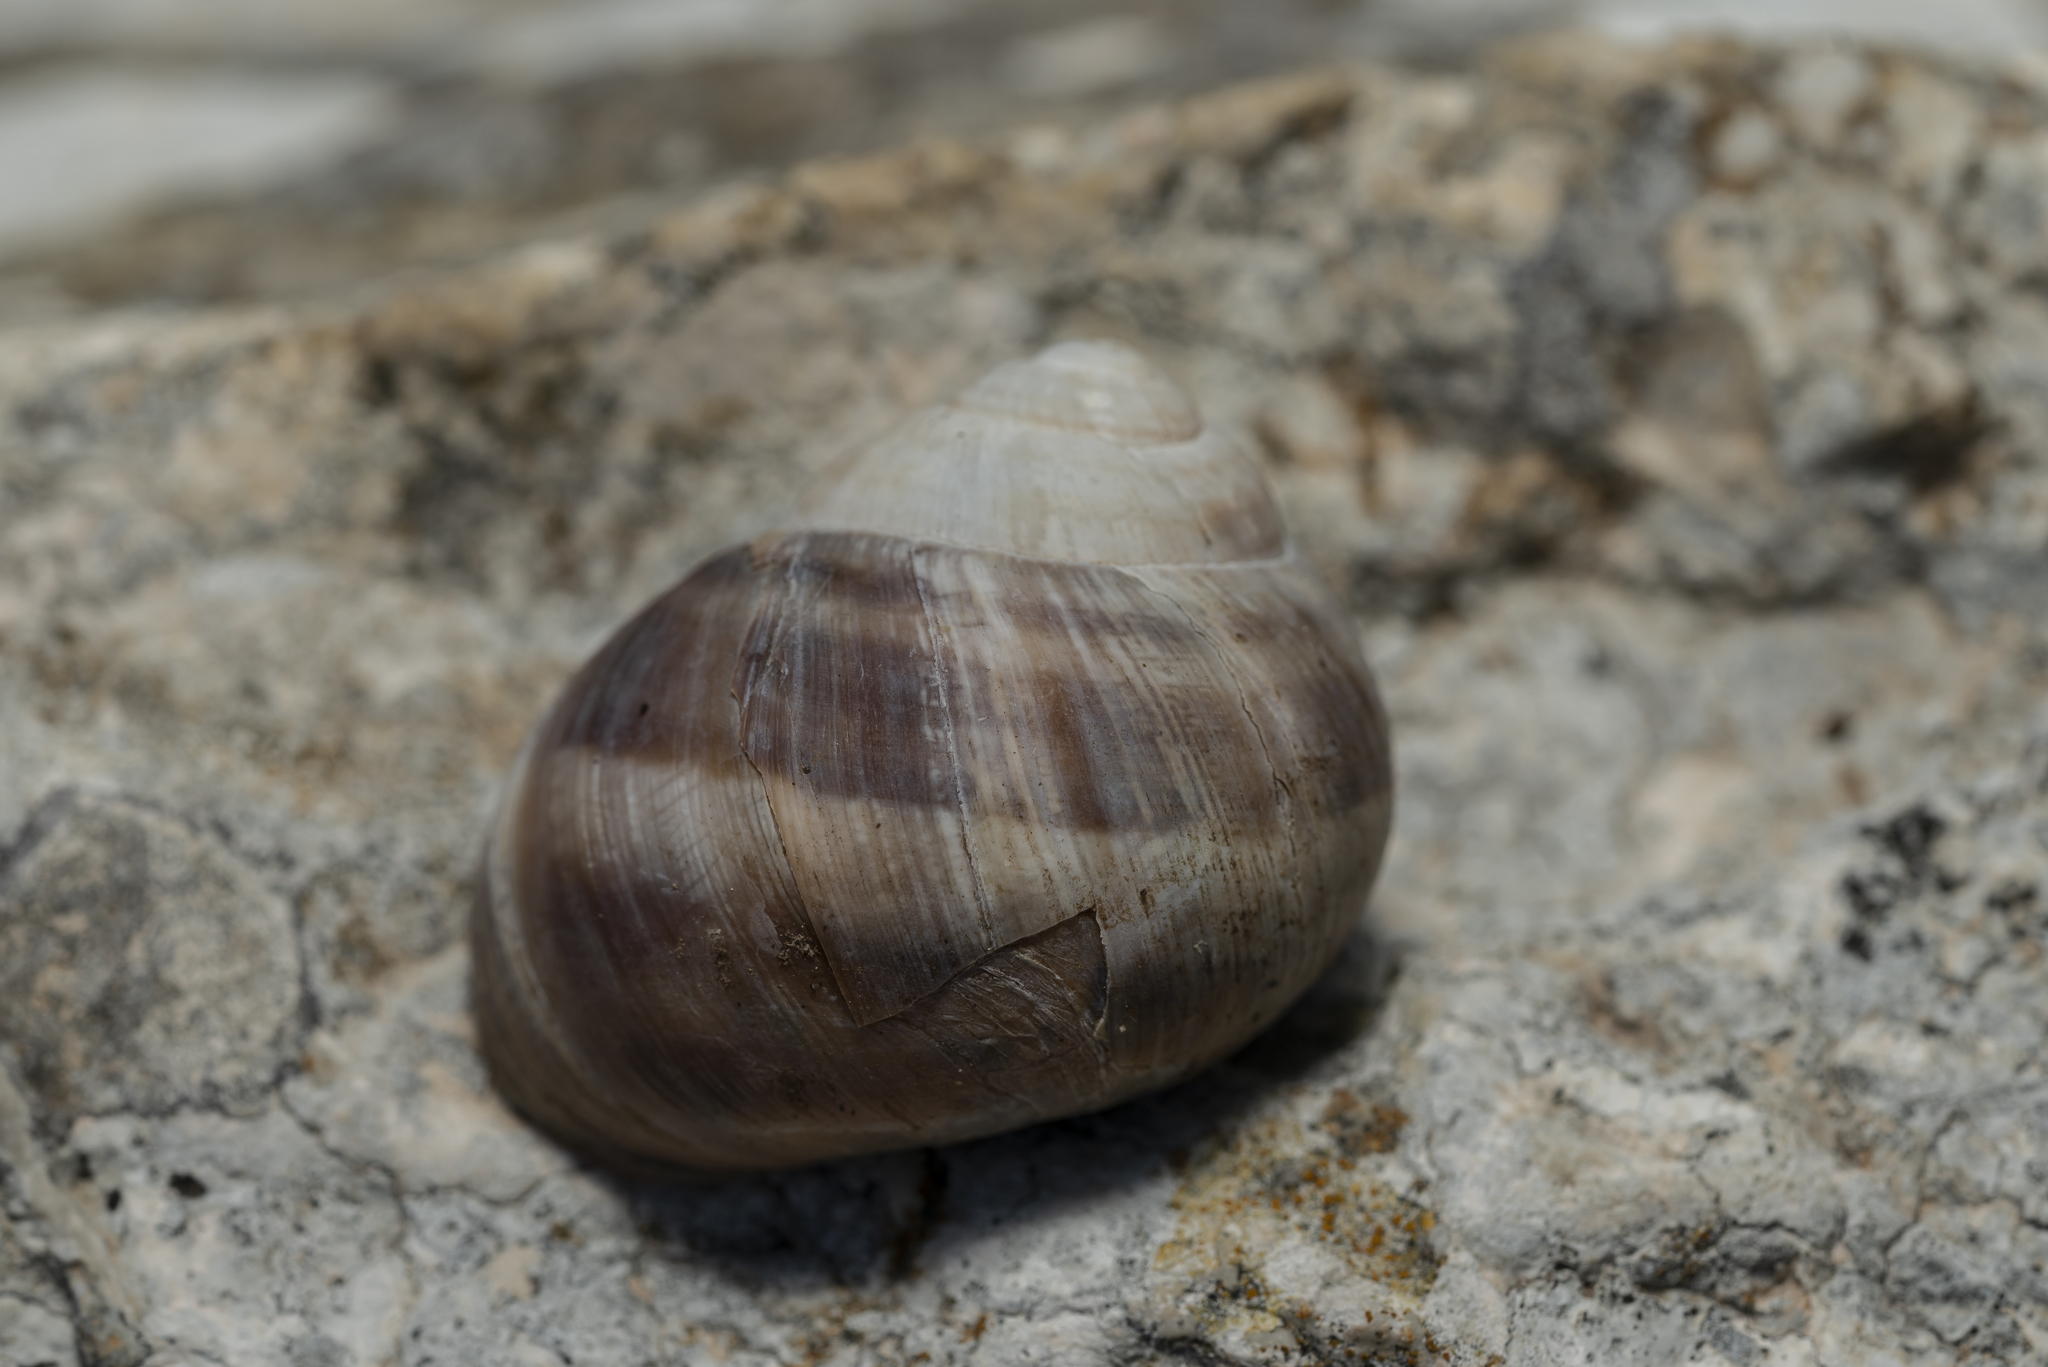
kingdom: Animalia
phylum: Mollusca
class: Gastropoda
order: Stylommatophora
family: Helicidae
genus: Helix
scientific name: Helix fathallae
